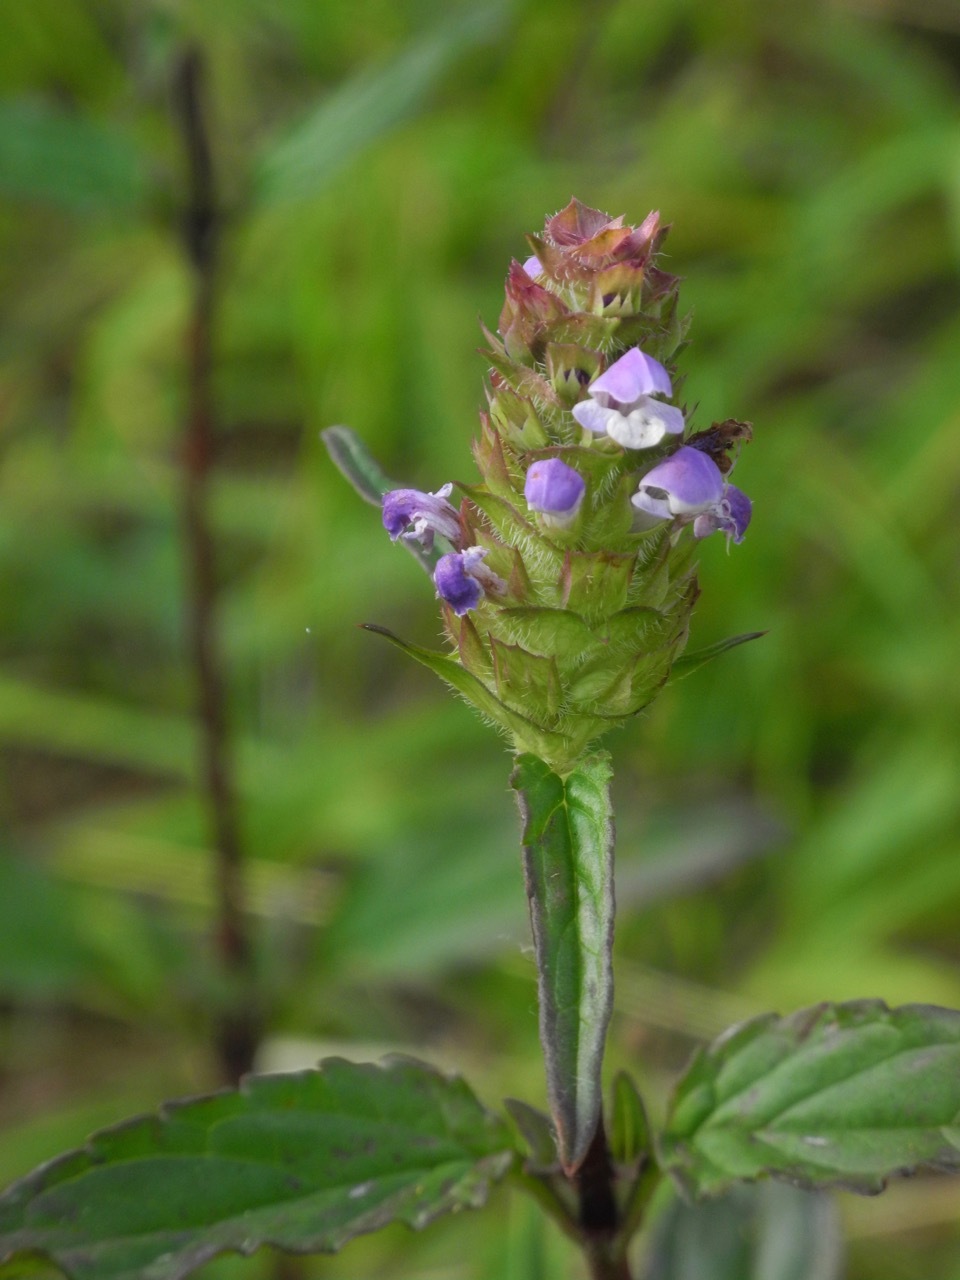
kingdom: Plantae
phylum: Tracheophyta
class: Magnoliopsida
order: Lamiales
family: Lamiaceae
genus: Prunella
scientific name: Prunella vulgaris
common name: Heal-all
